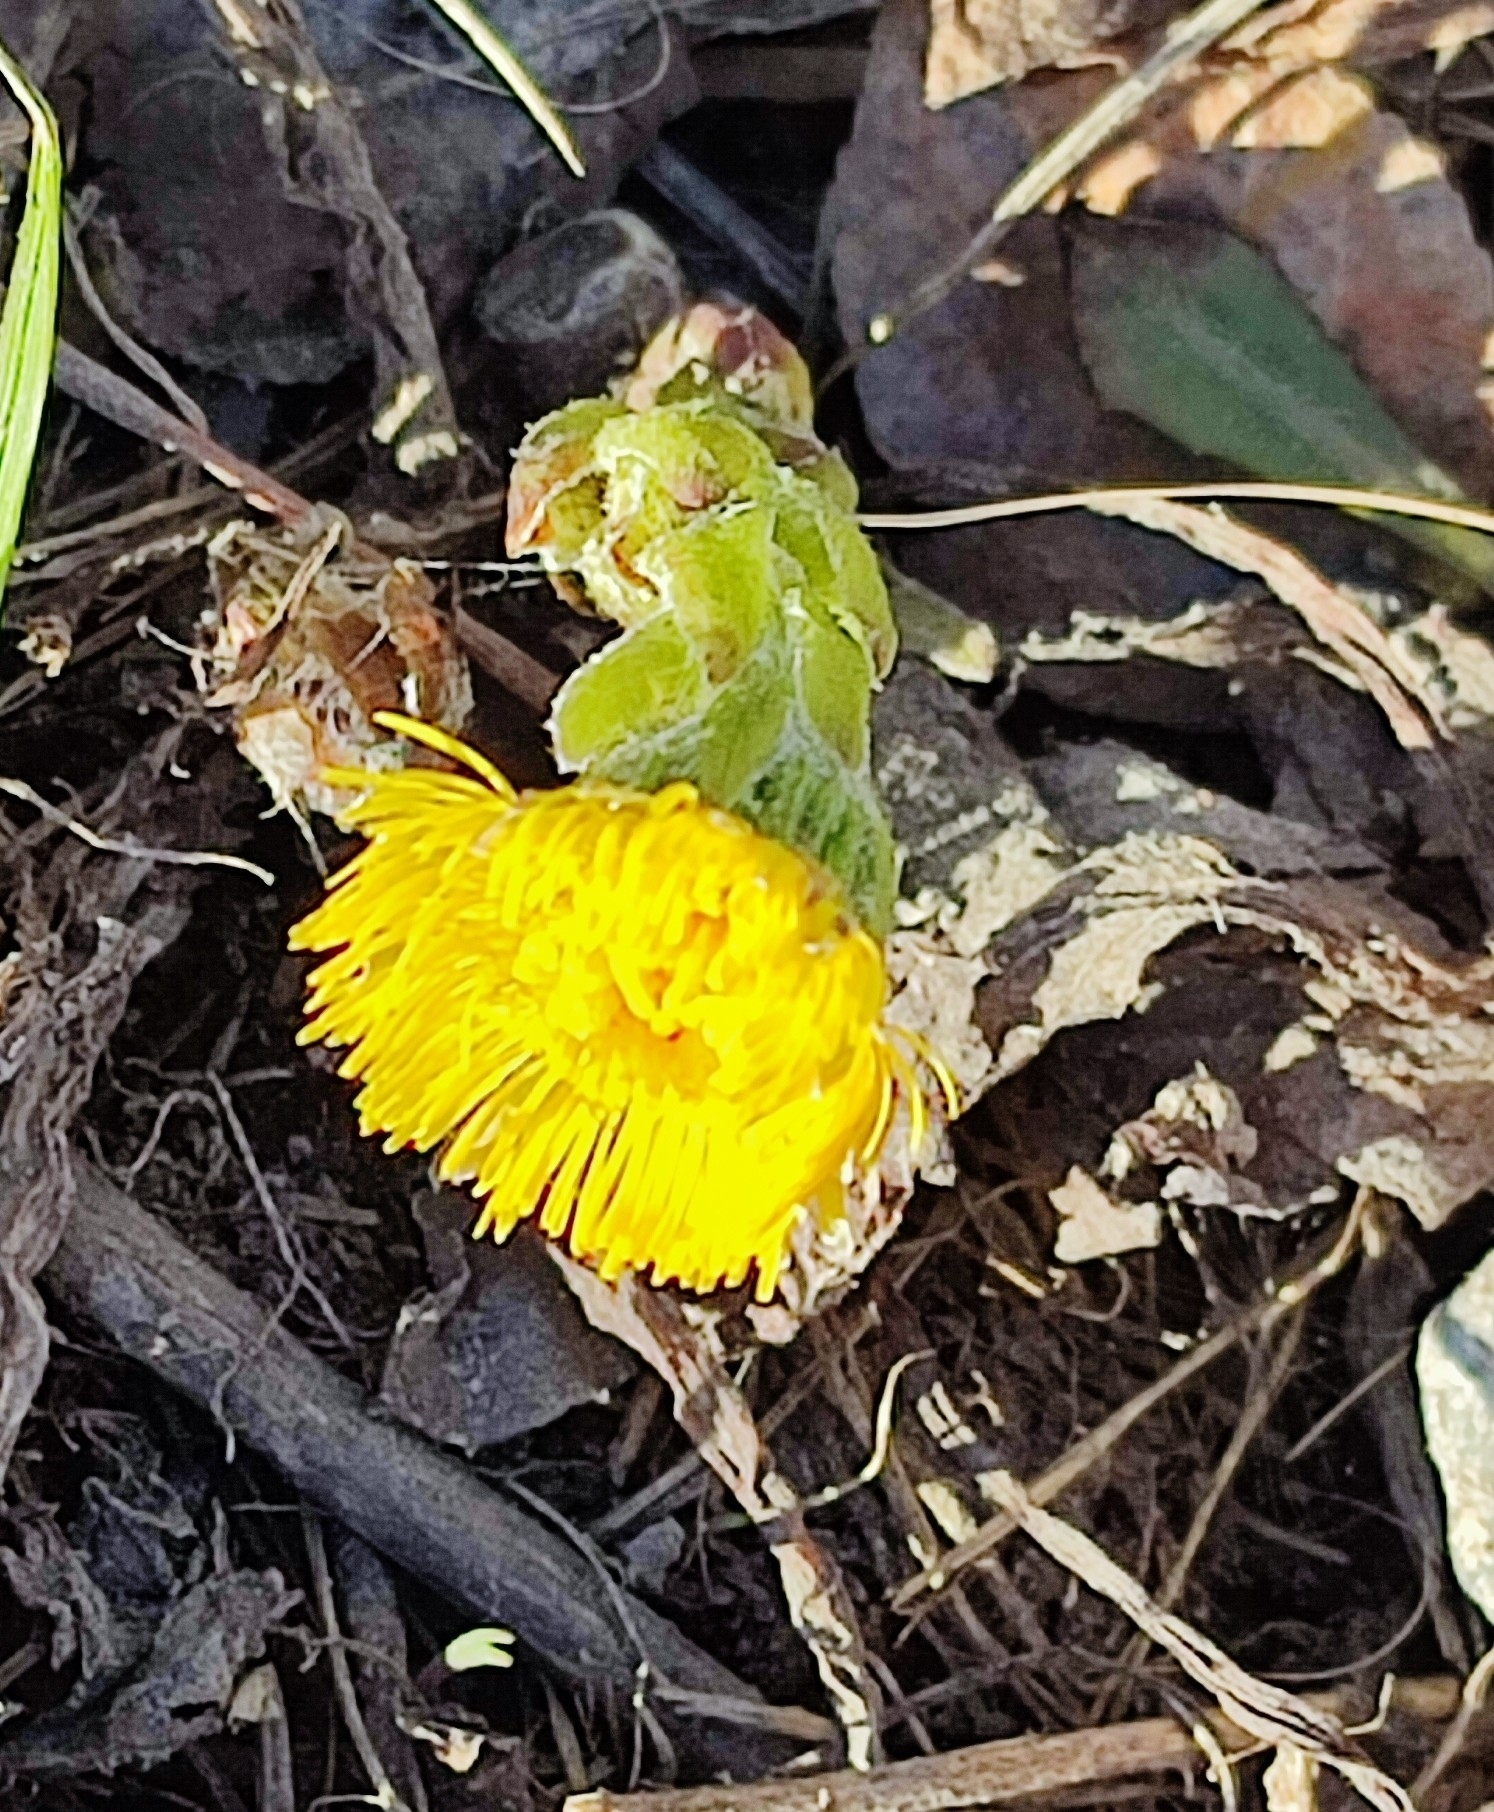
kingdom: Plantae
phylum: Tracheophyta
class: Magnoliopsida
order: Asterales
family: Asteraceae
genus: Tussilago
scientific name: Tussilago farfara
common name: Coltsfoot
